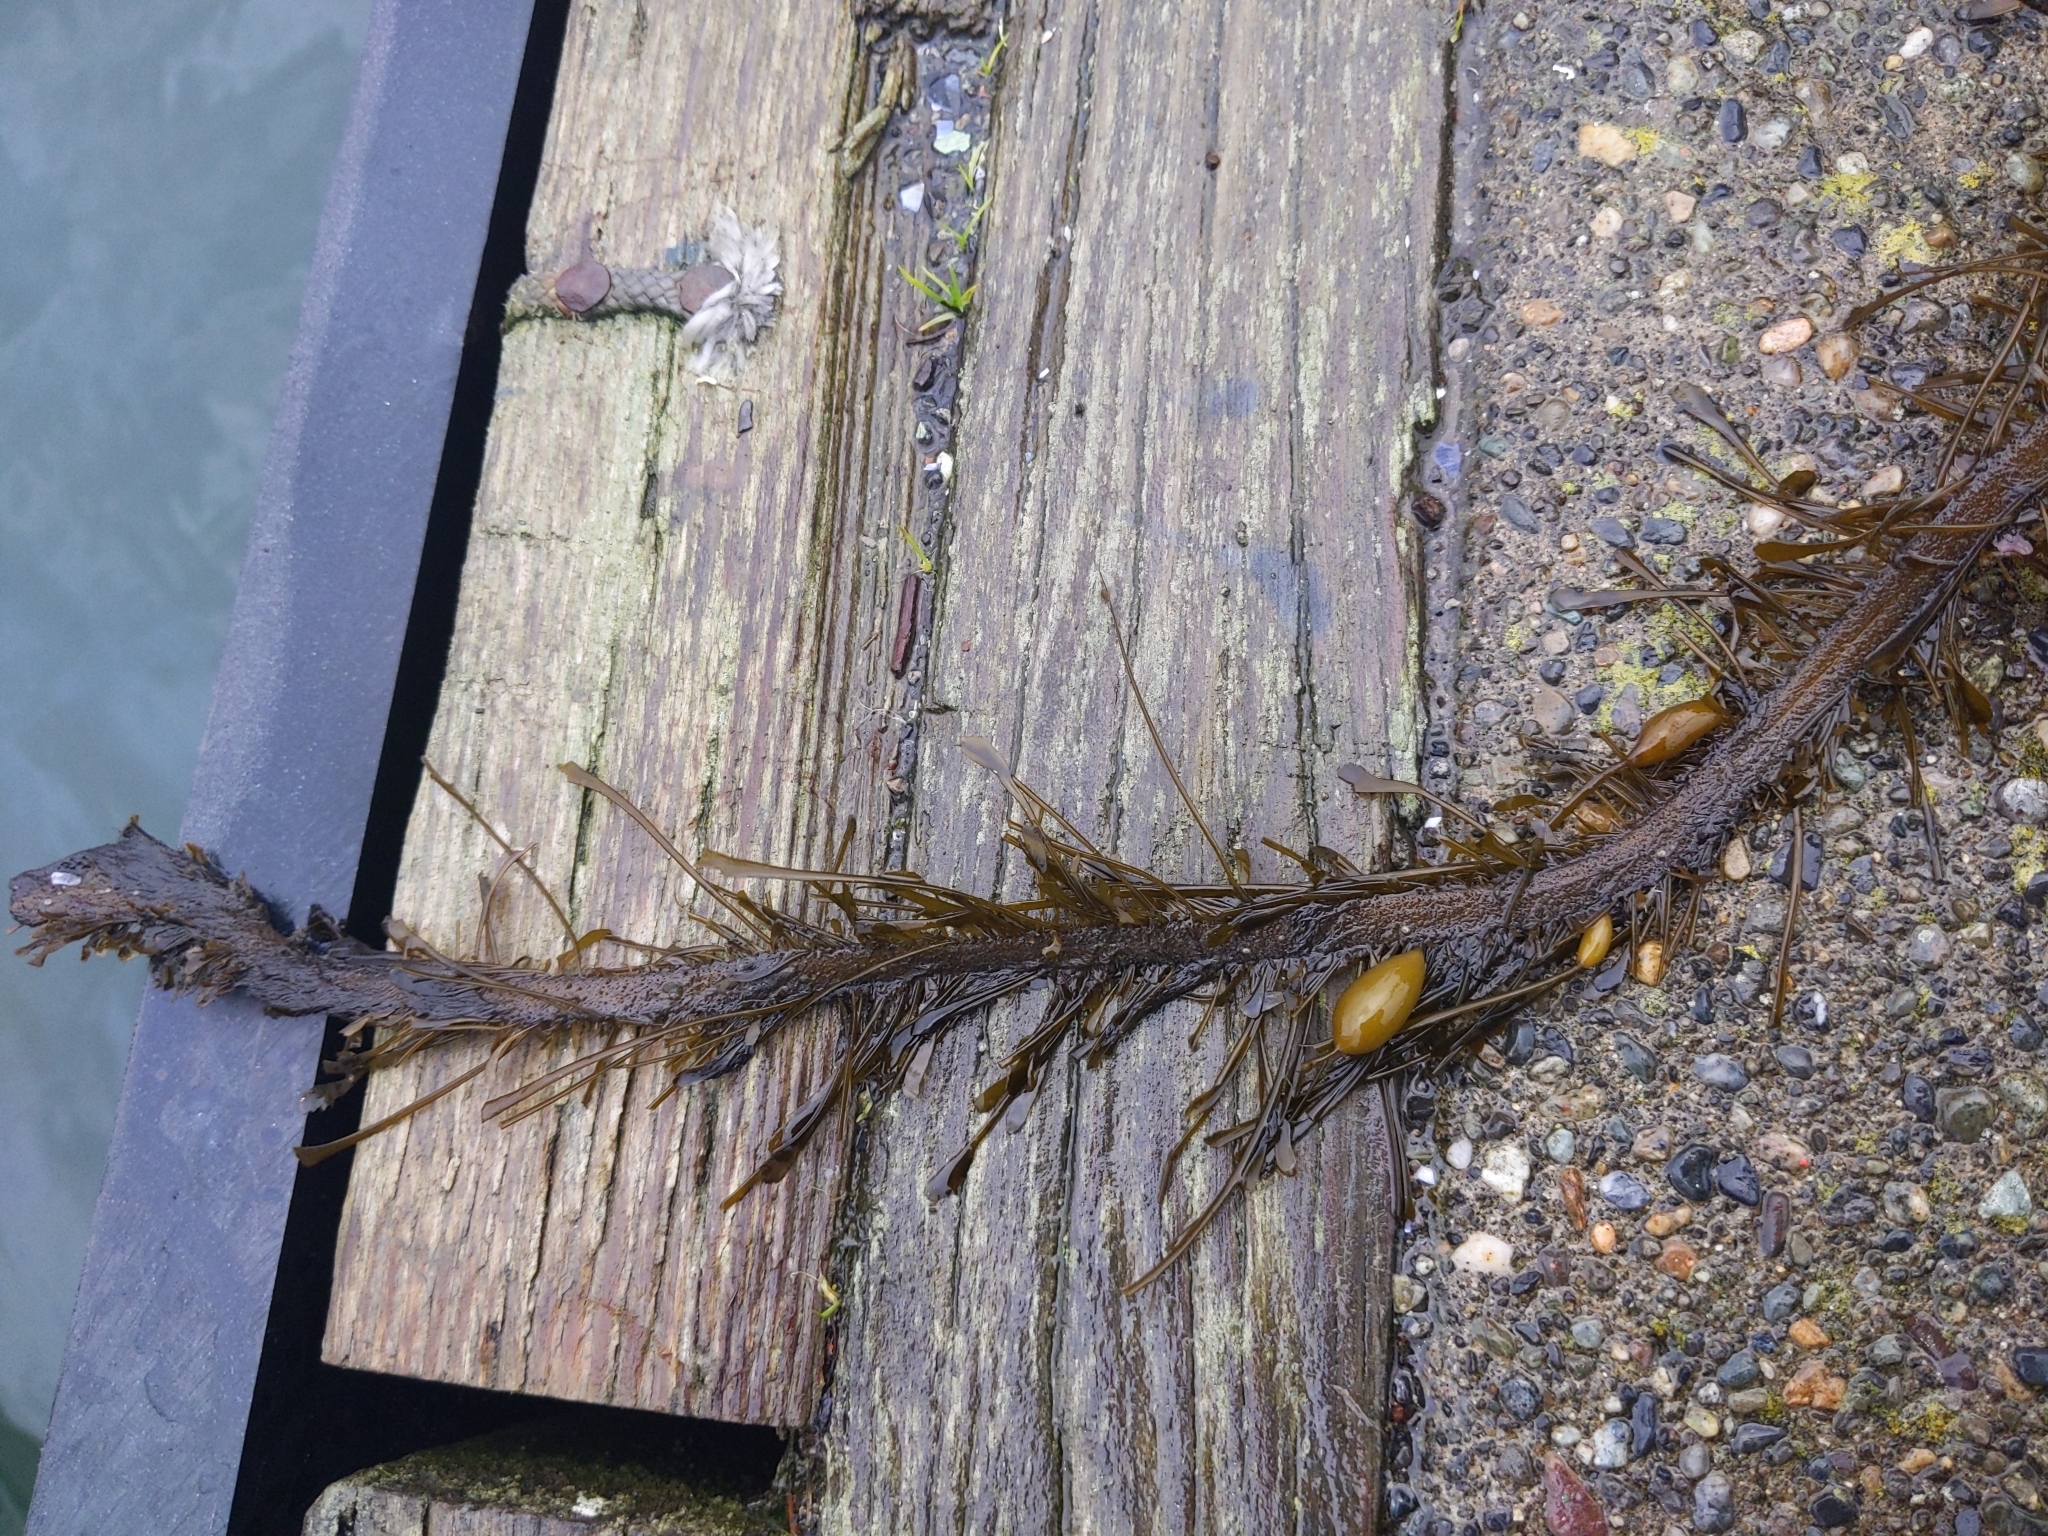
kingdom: Chromista
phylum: Ochrophyta
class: Phaeophyceae
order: Laminariales
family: Lessoniaceae
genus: Egregia
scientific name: Egregia menziesii
